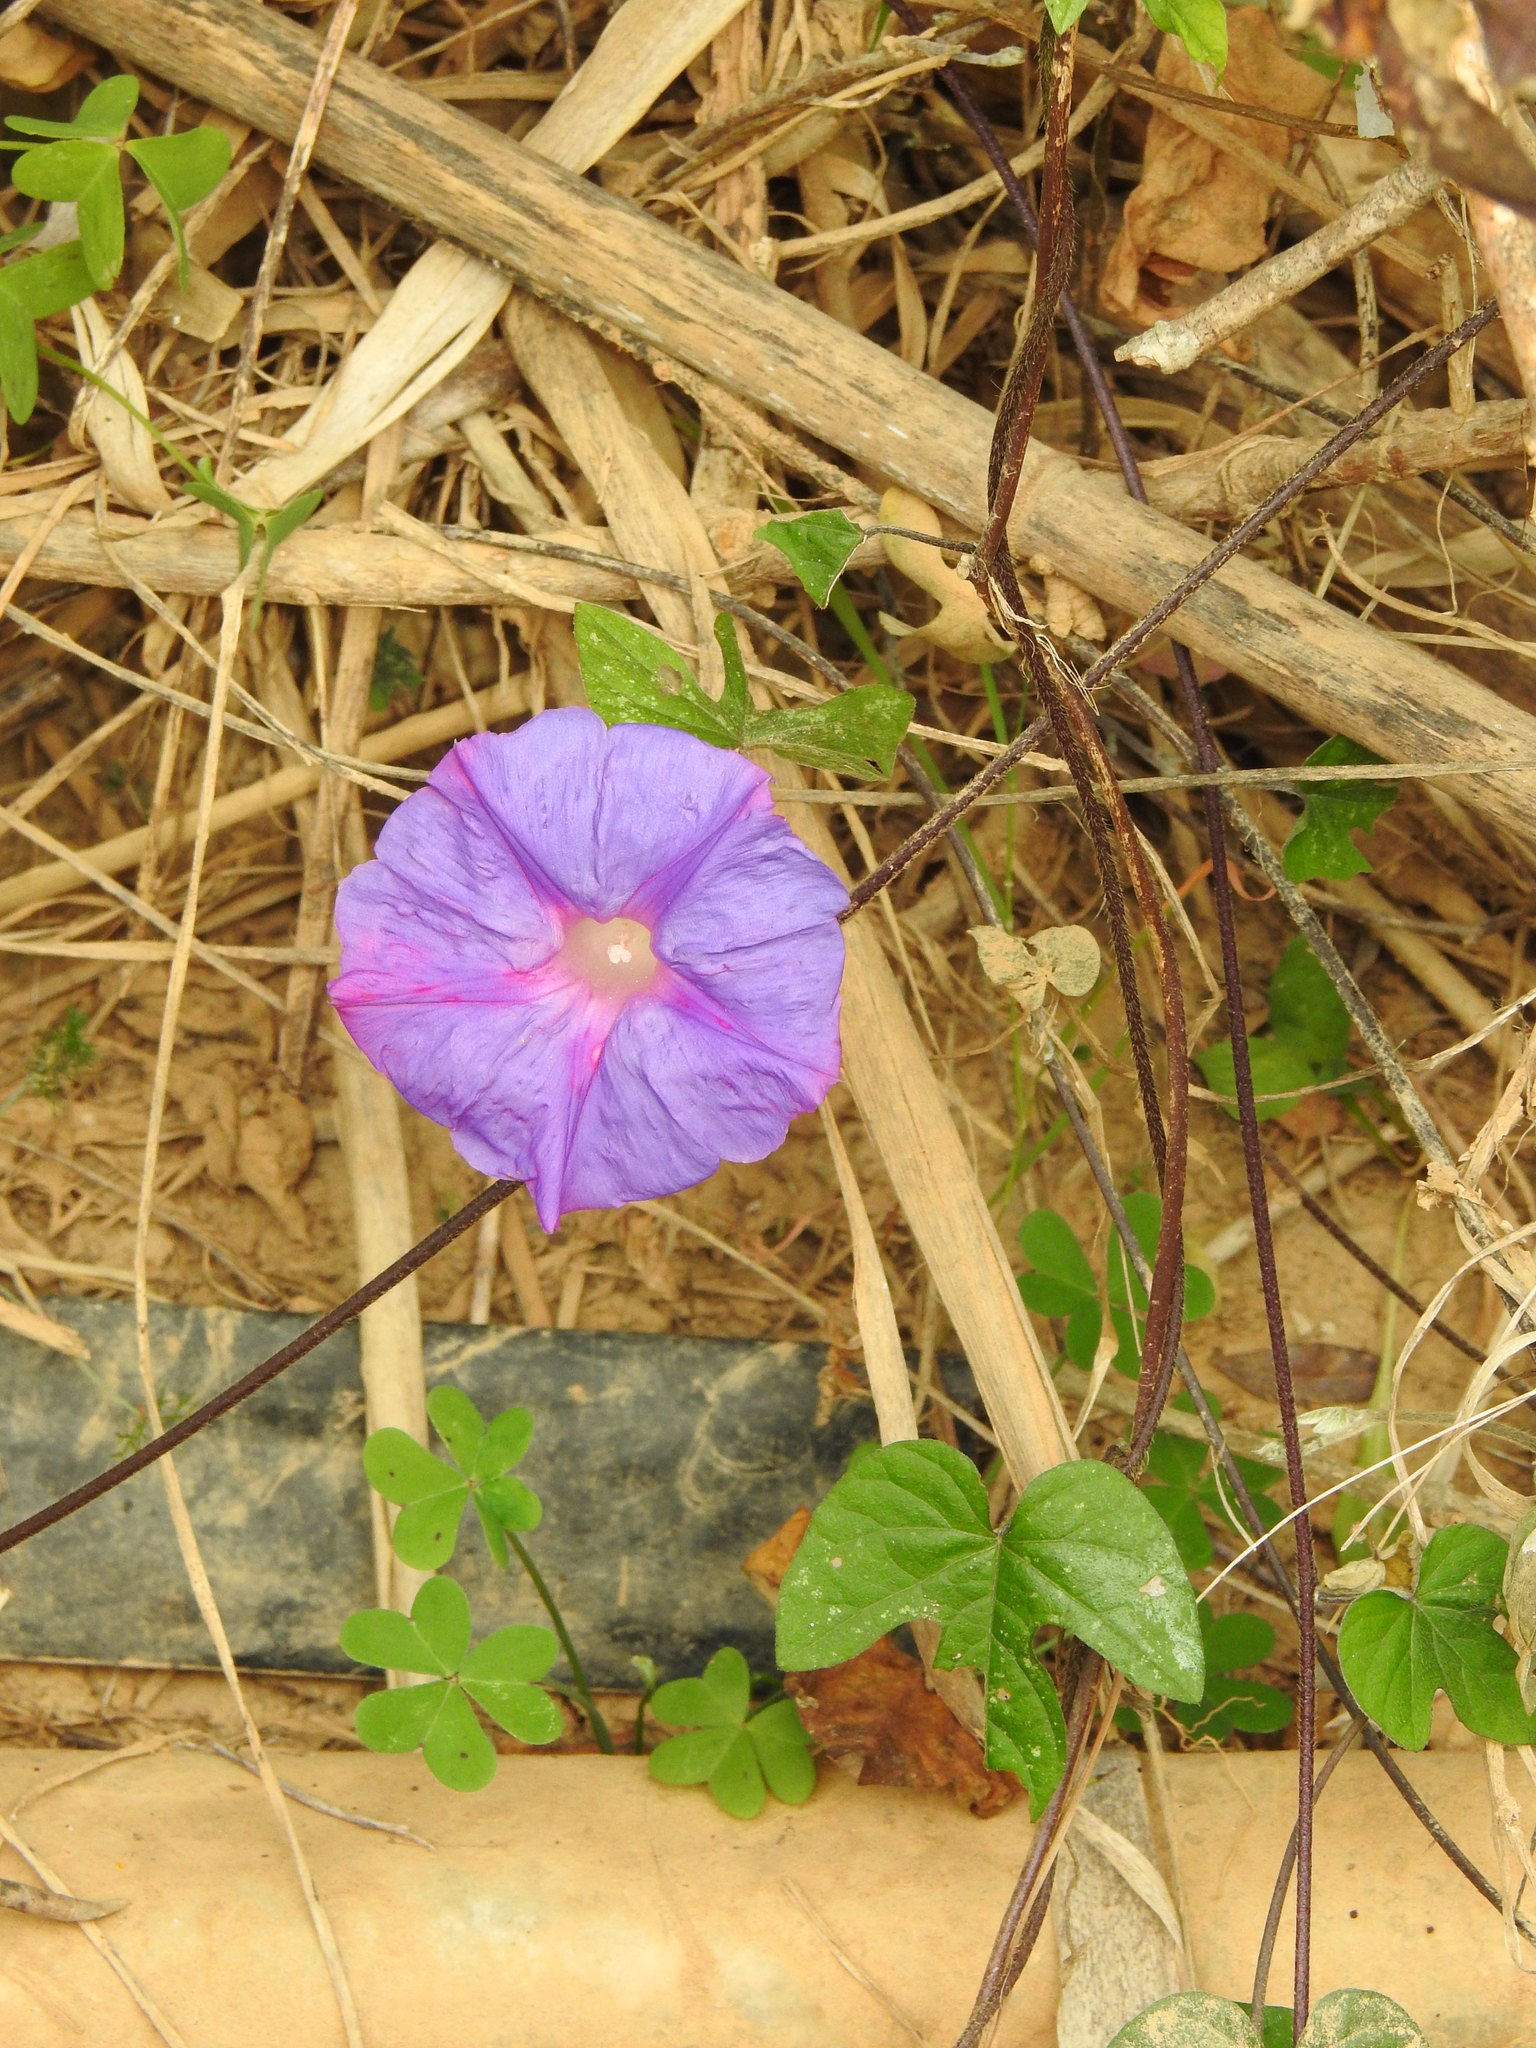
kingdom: Plantae
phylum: Tracheophyta
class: Magnoliopsida
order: Solanales
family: Convolvulaceae
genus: Ipomoea
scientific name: Ipomoea indica
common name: Blue dawnflower
